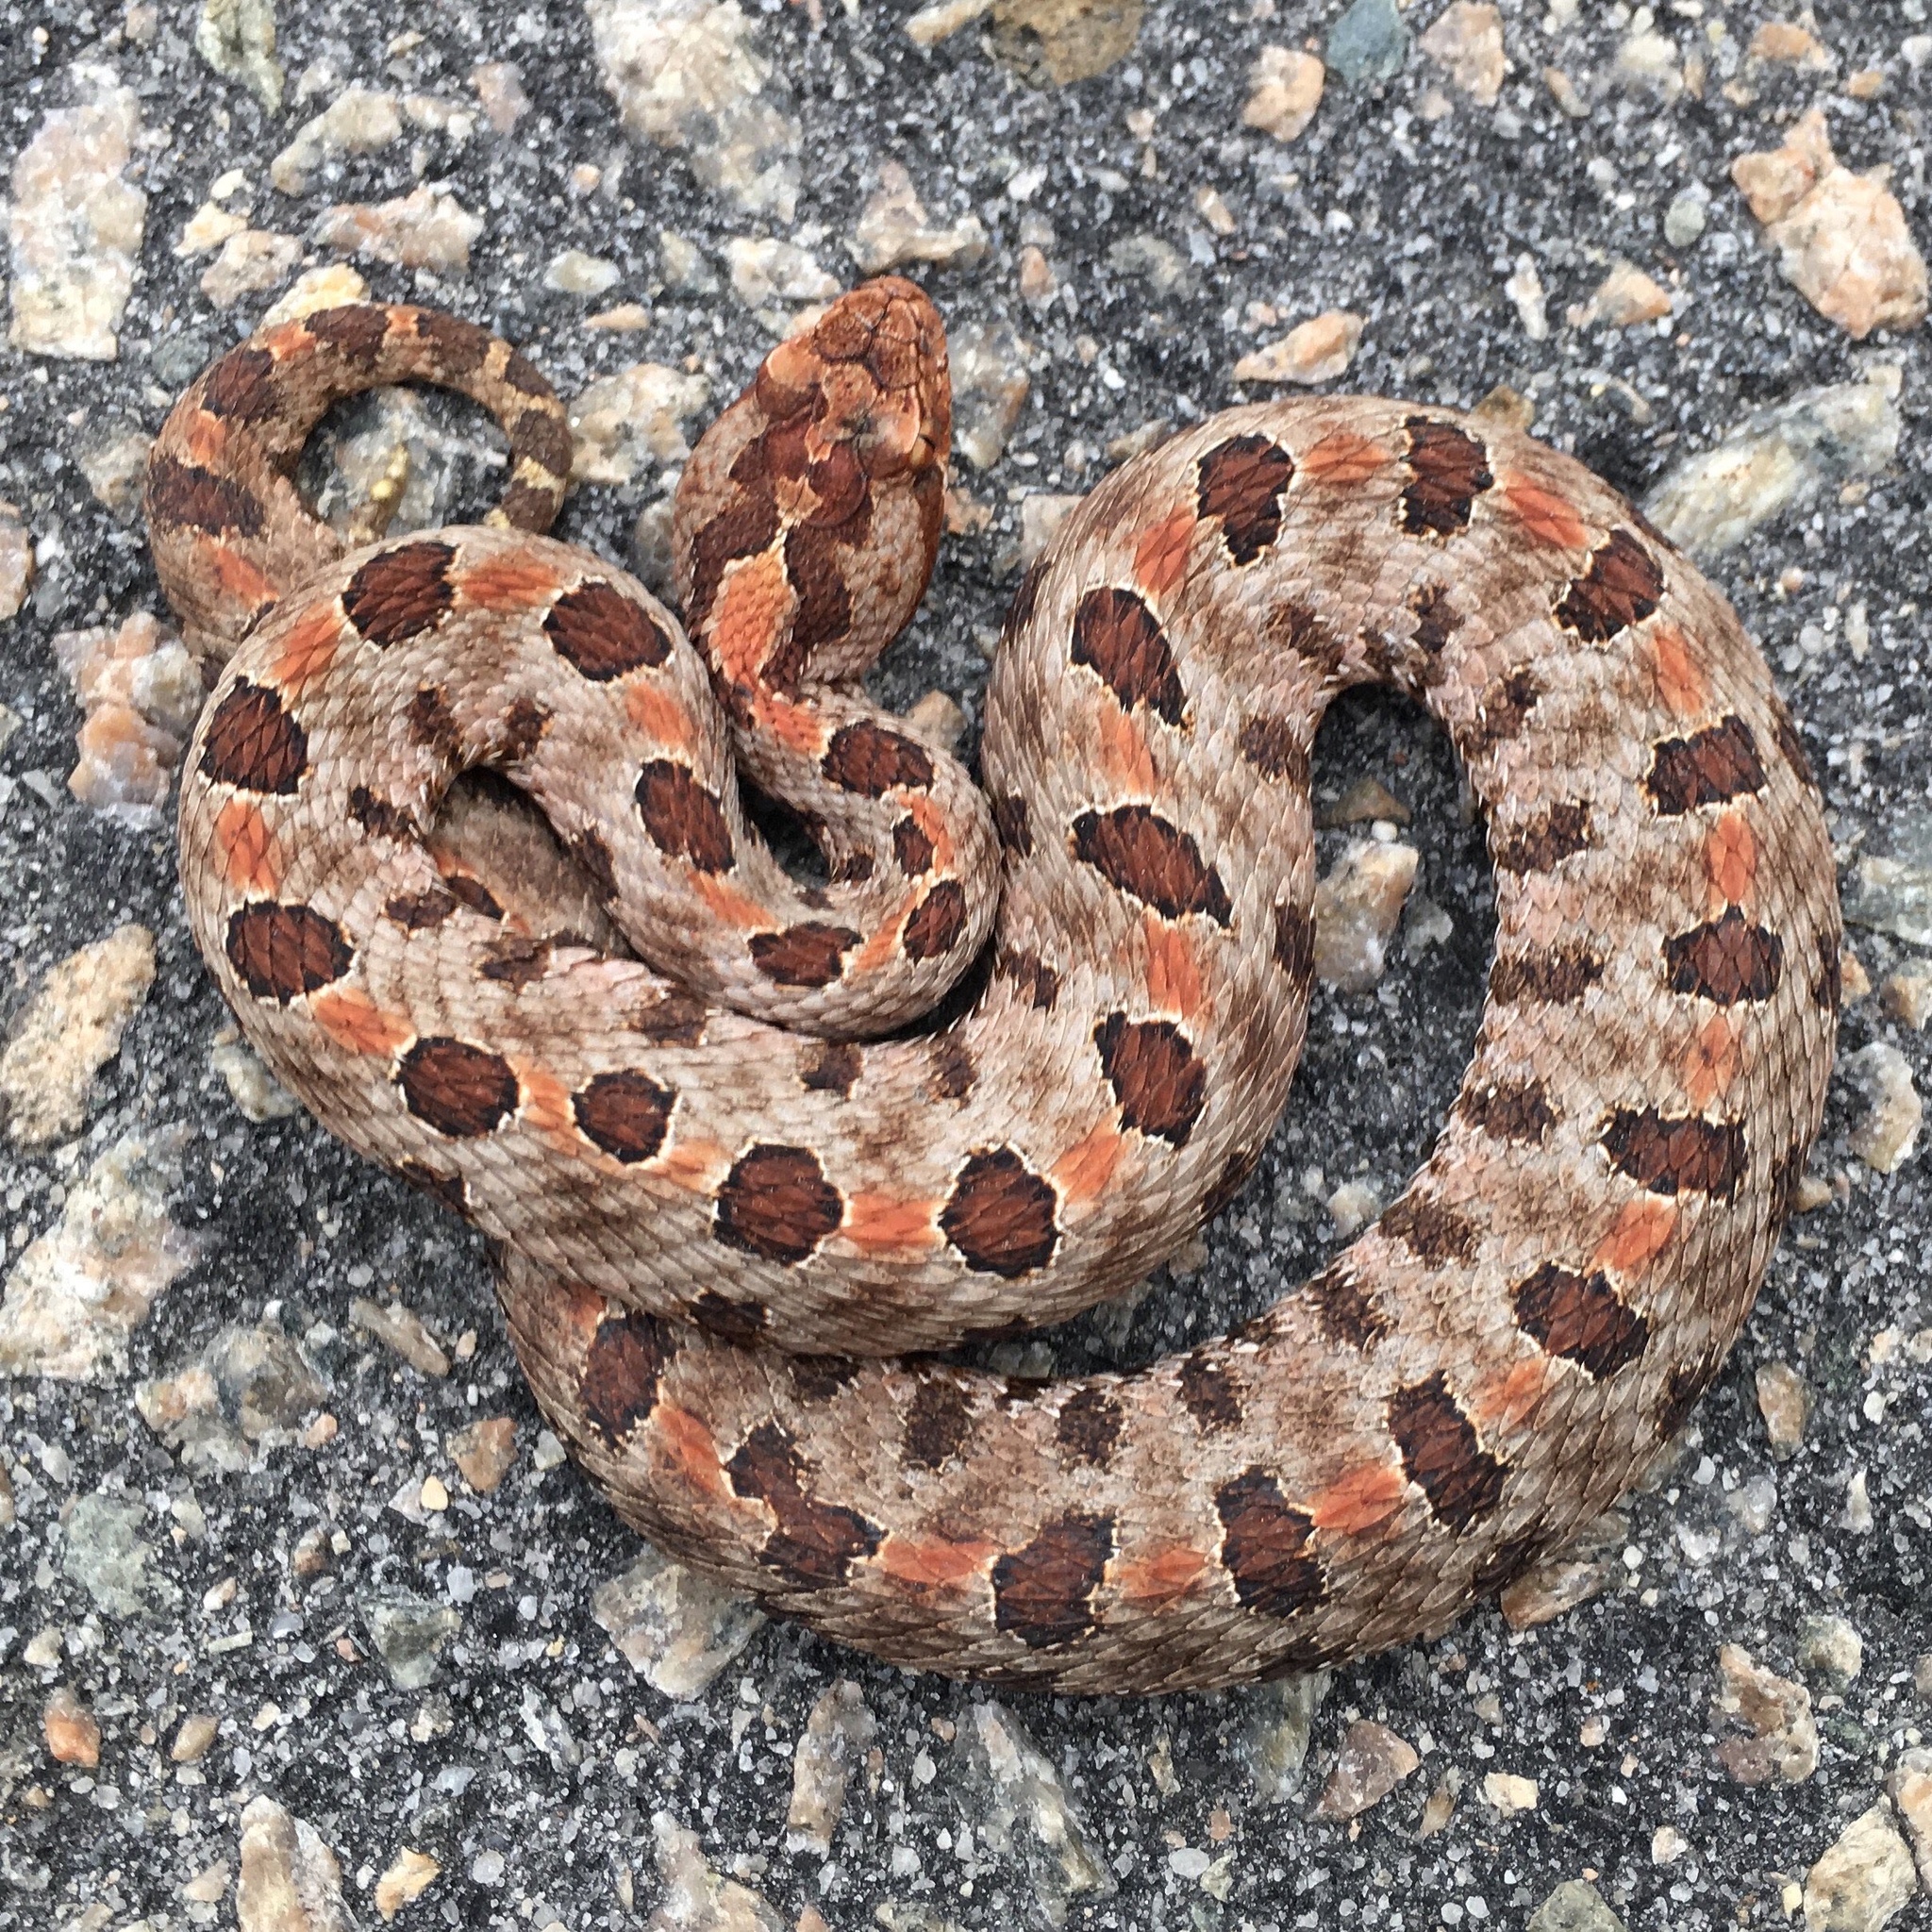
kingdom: Animalia
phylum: Chordata
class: Squamata
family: Viperidae
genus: Sistrurus
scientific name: Sistrurus miliarius
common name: Pygmy rattlesnake
